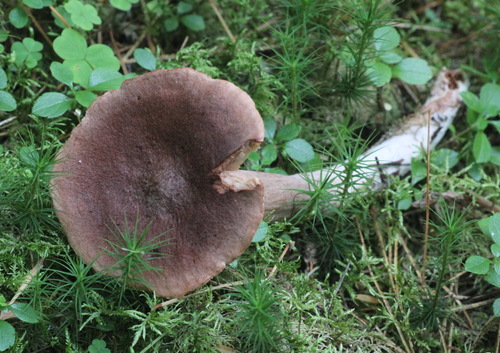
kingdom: Fungi
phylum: Basidiomycota
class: Agaricomycetes
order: Russulales
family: Russulaceae
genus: Lactarius
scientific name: Lactarius rufus
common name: Rufous milk-cap
